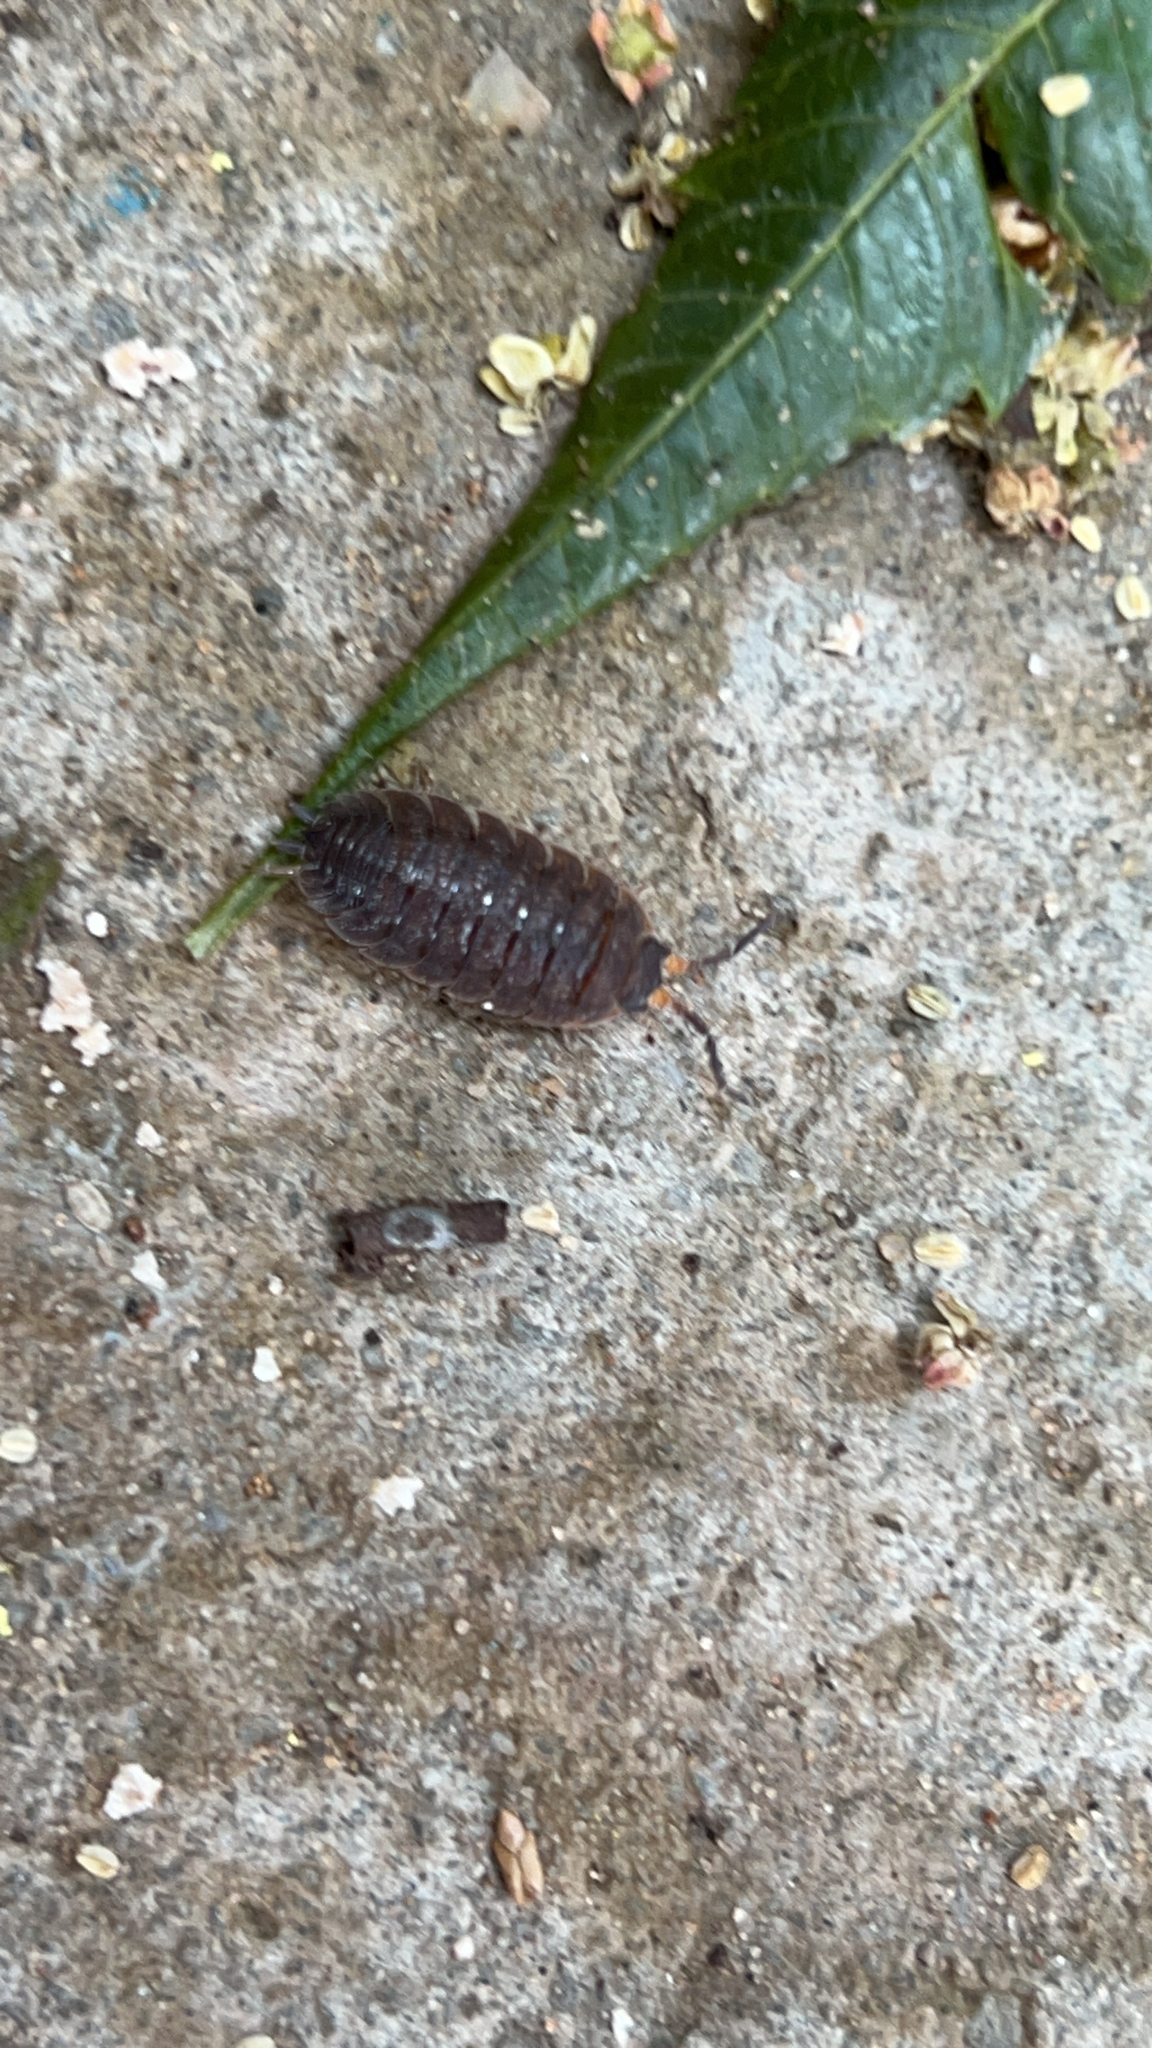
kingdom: Animalia
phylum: Arthropoda
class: Malacostraca
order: Isopoda
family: Porcellionidae
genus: Porcellio
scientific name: Porcellio scaber
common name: Common rough woodlouse
